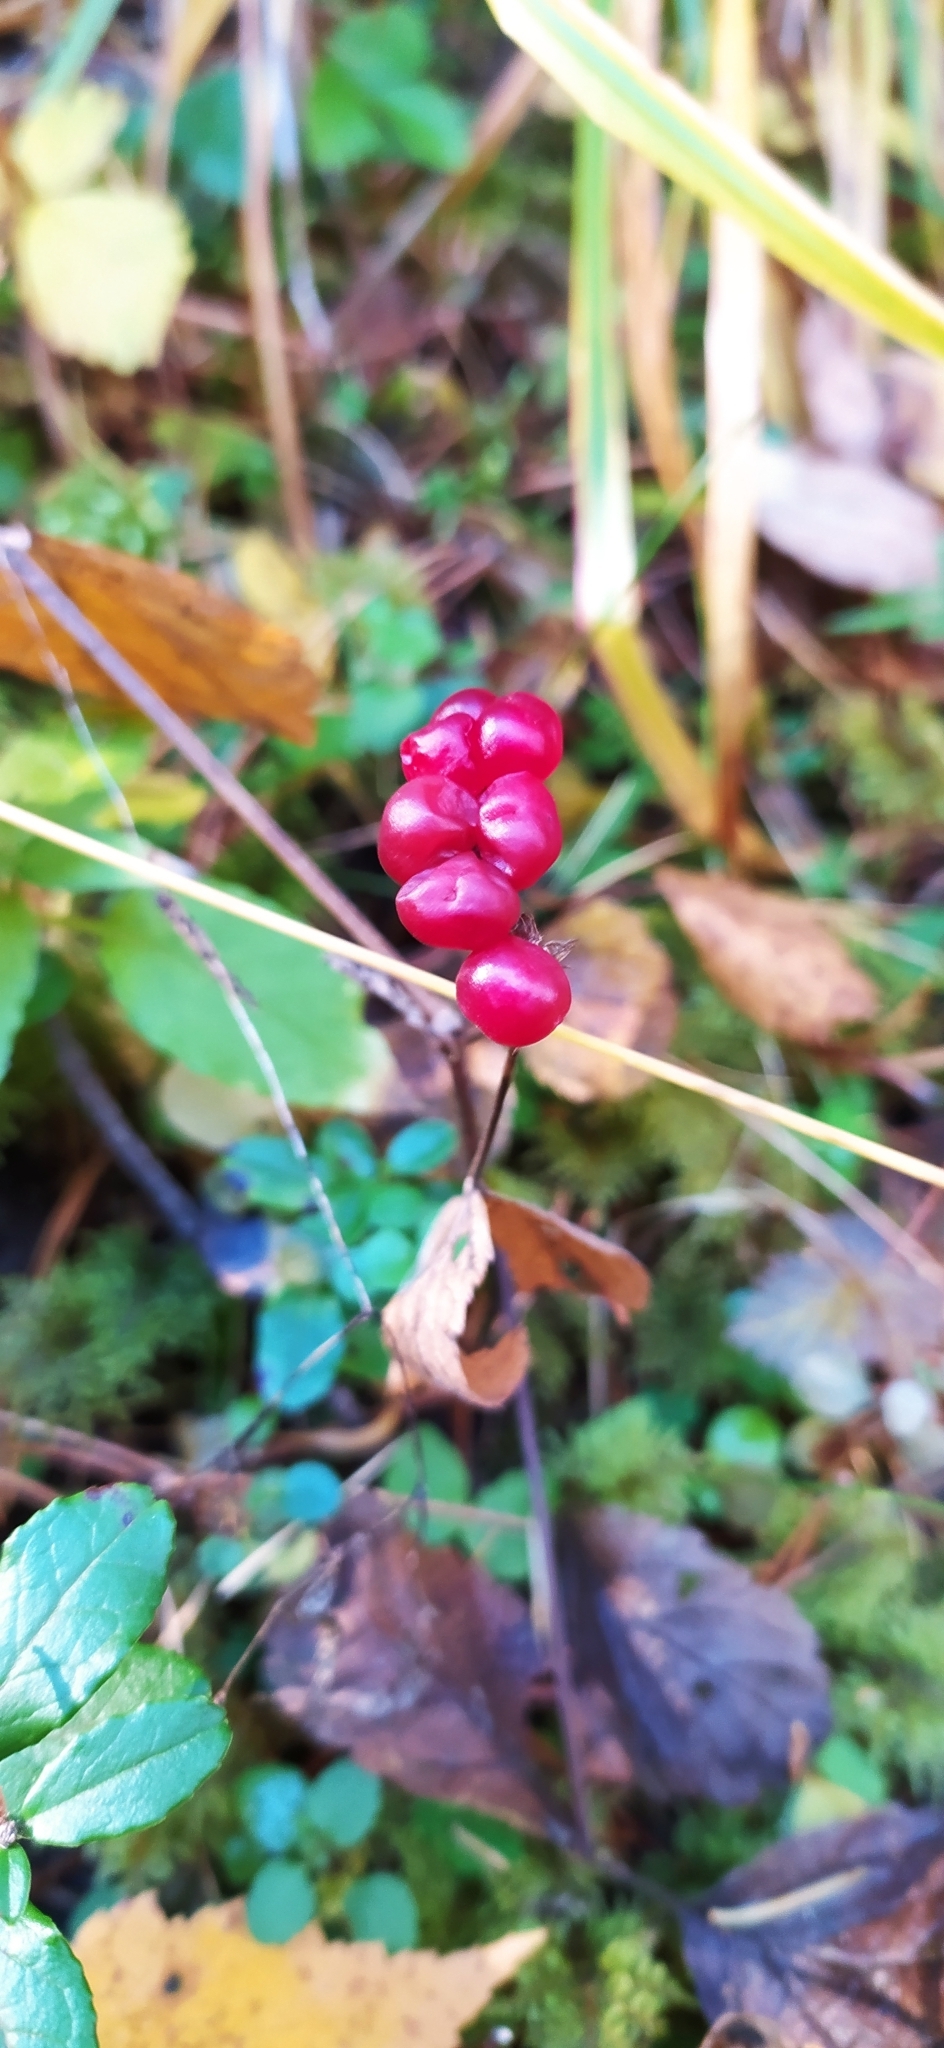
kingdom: Plantae
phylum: Tracheophyta
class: Magnoliopsida
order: Rosales
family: Rosaceae
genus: Rubus
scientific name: Rubus saxatilis
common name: Stone bramble
